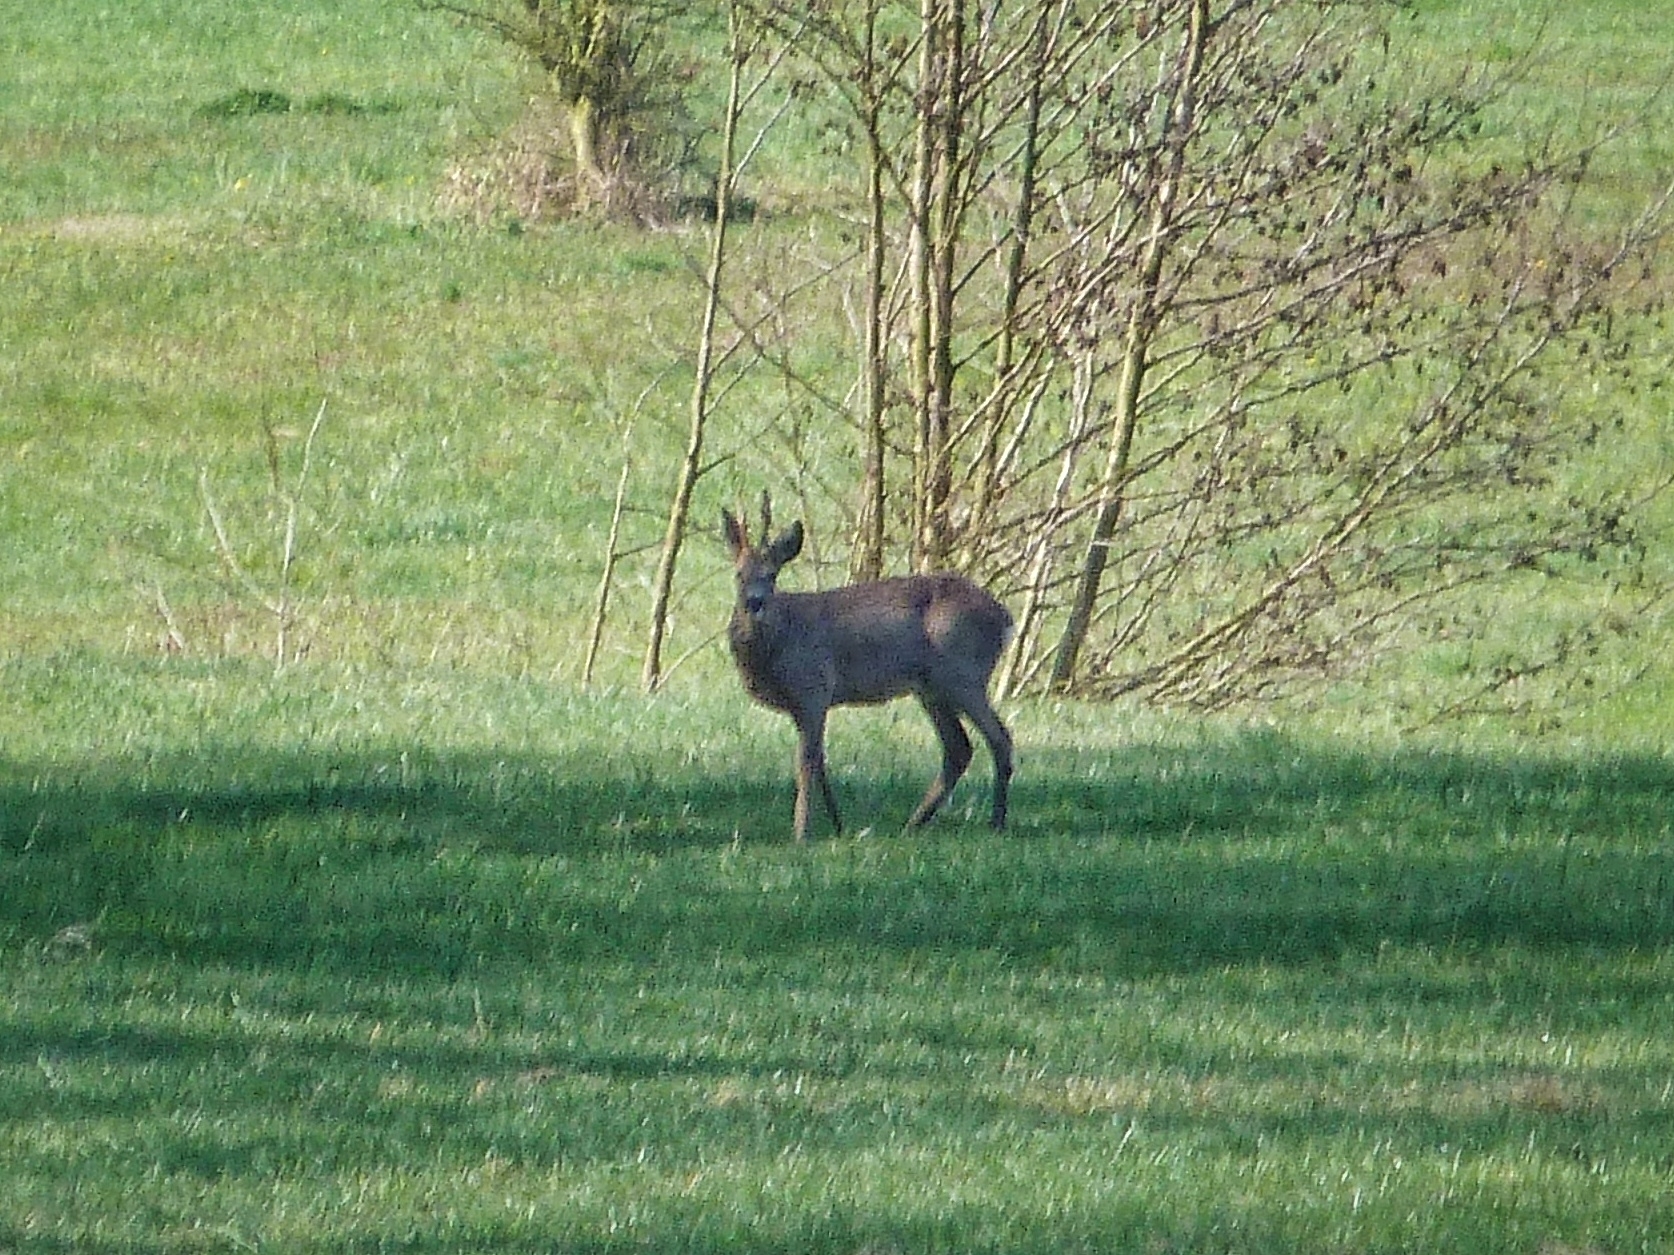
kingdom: Animalia
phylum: Chordata
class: Mammalia
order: Artiodactyla
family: Cervidae
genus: Capreolus
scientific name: Capreolus capreolus
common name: Western roe deer
